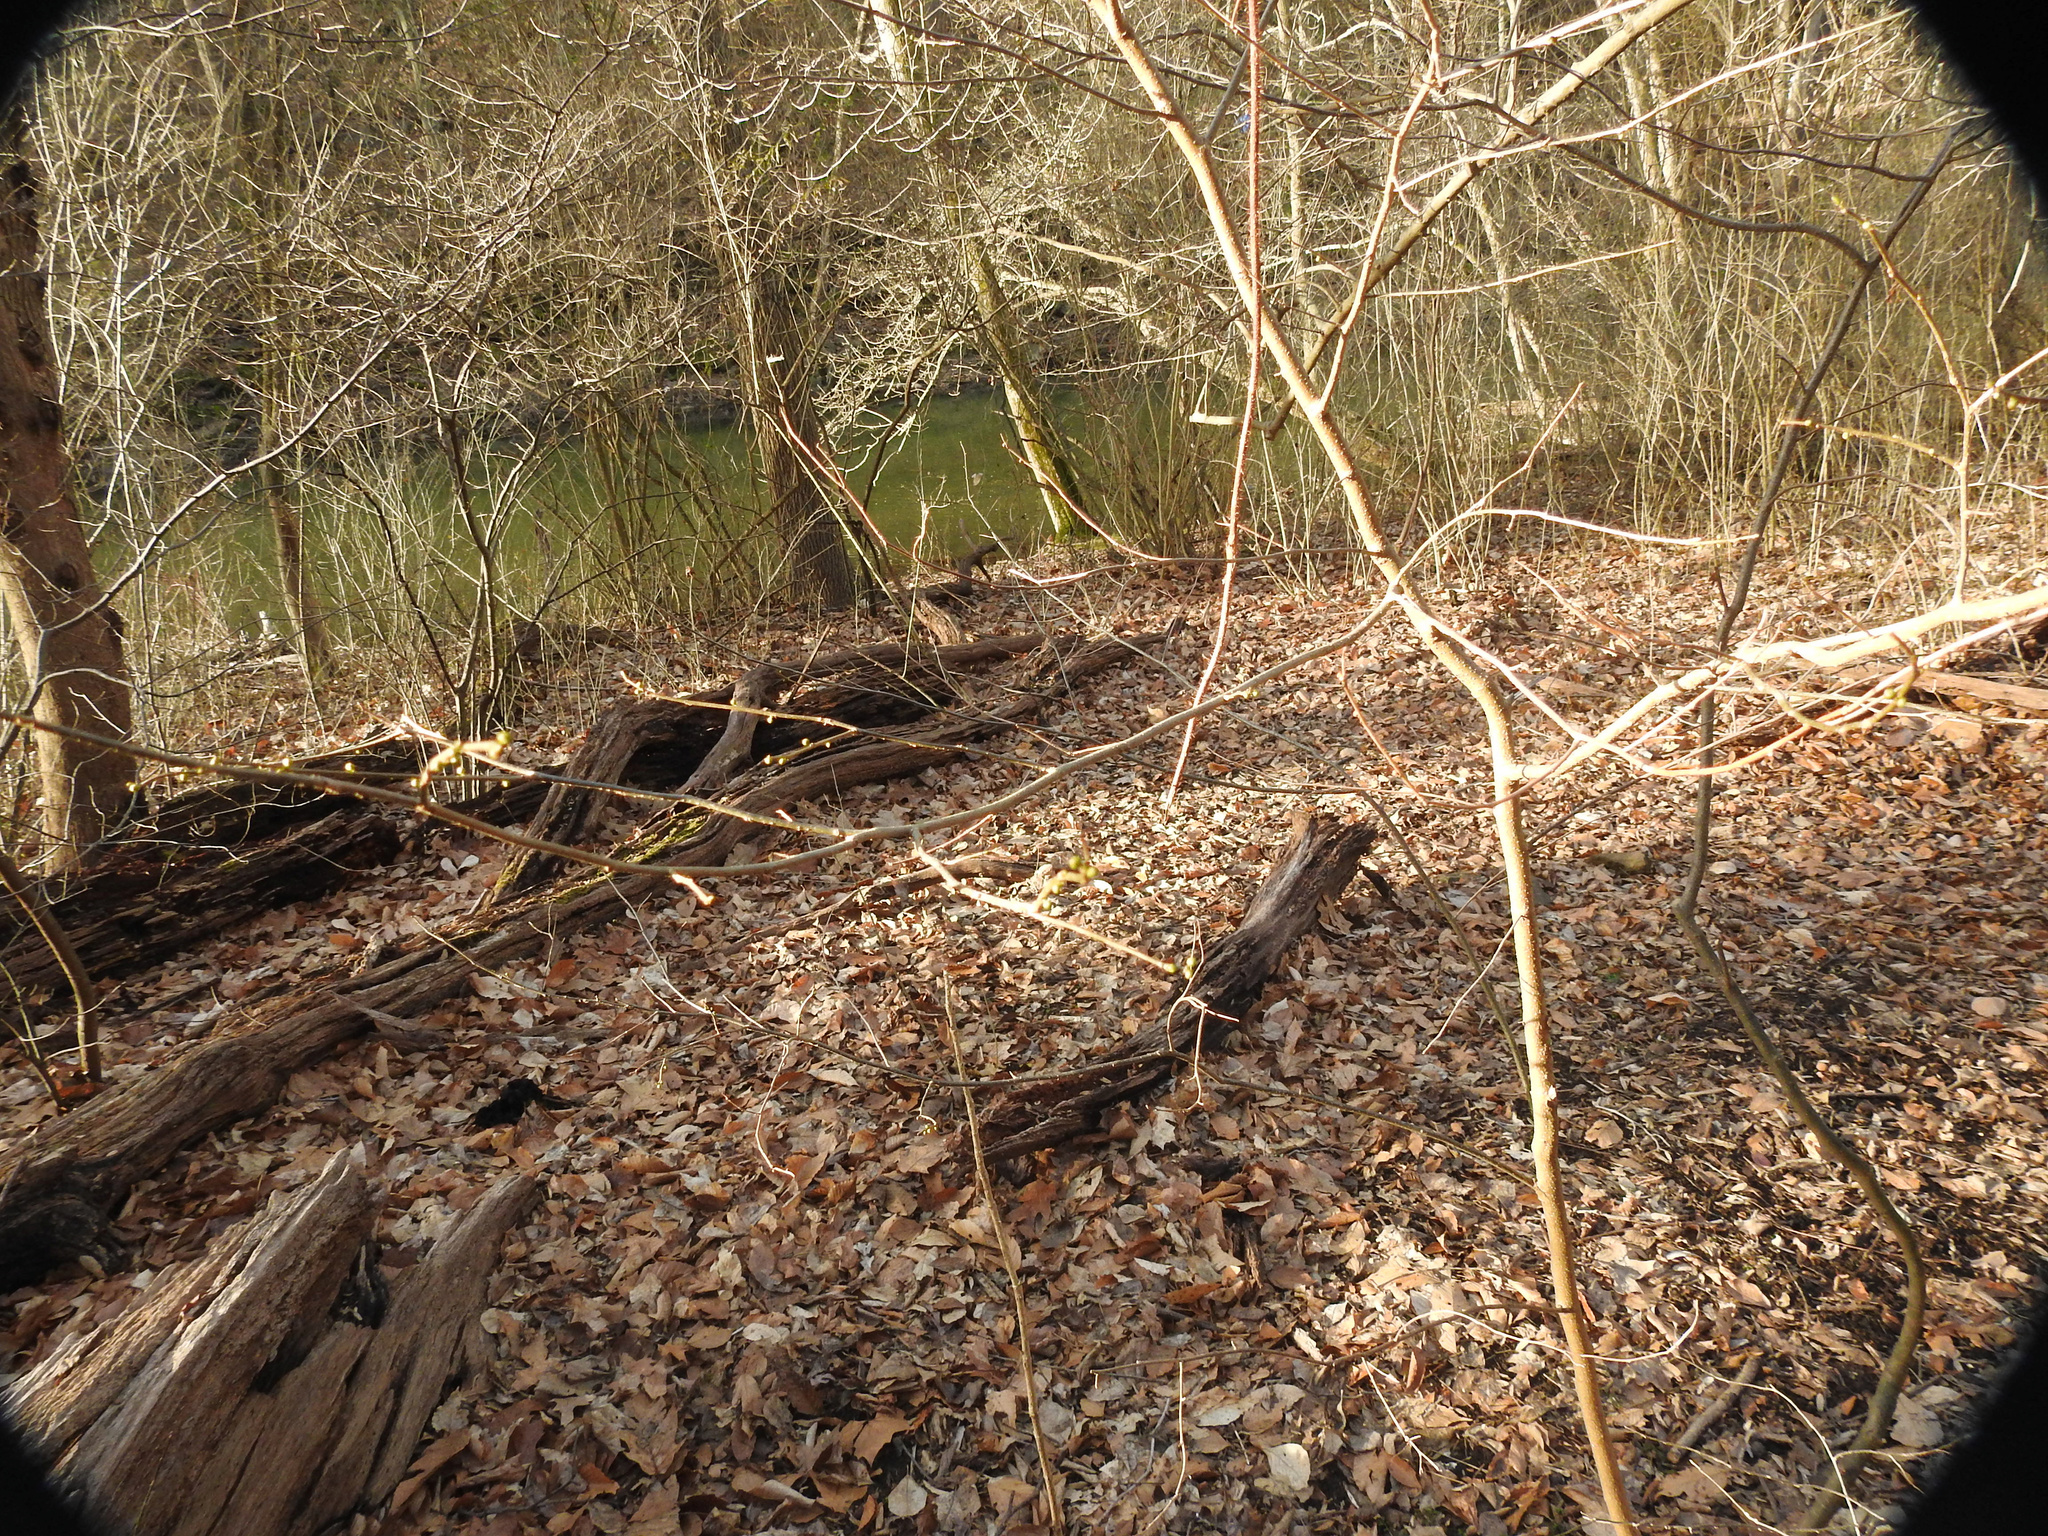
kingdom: Plantae
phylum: Tracheophyta
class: Magnoliopsida
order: Laurales
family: Lauraceae
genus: Lindera
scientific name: Lindera benzoin
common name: Spicebush
